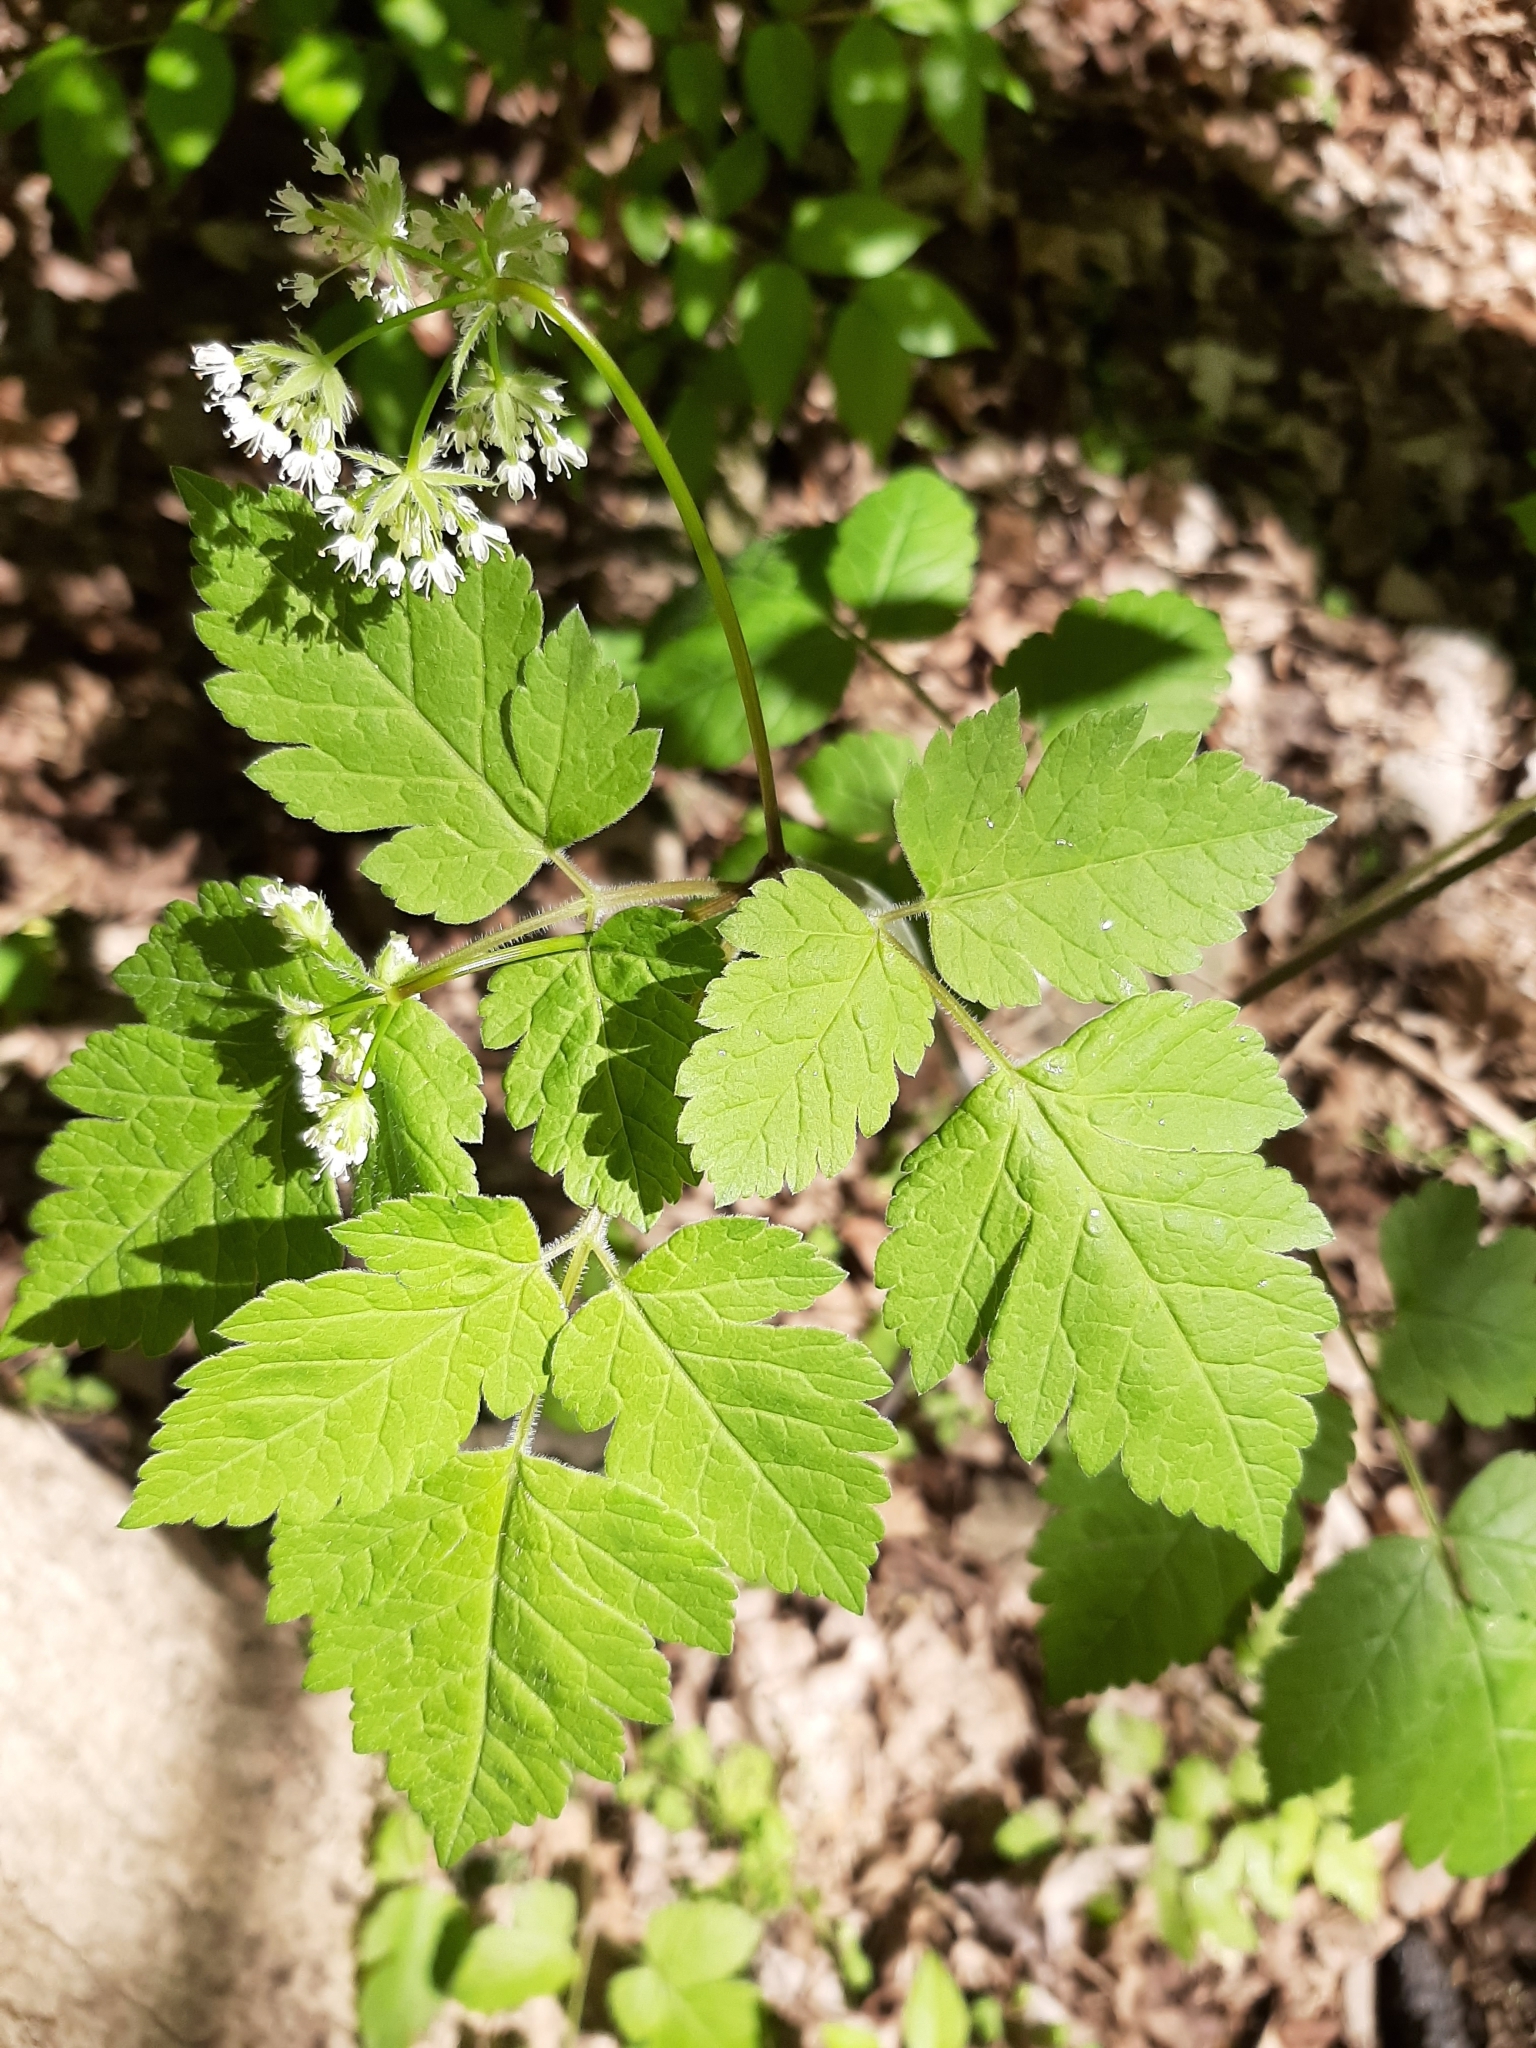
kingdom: Plantae
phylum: Tracheophyta
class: Magnoliopsida
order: Apiales
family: Apiaceae
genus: Osmorhiza
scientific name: Osmorhiza claytonii
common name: Hairy sweet cicely
